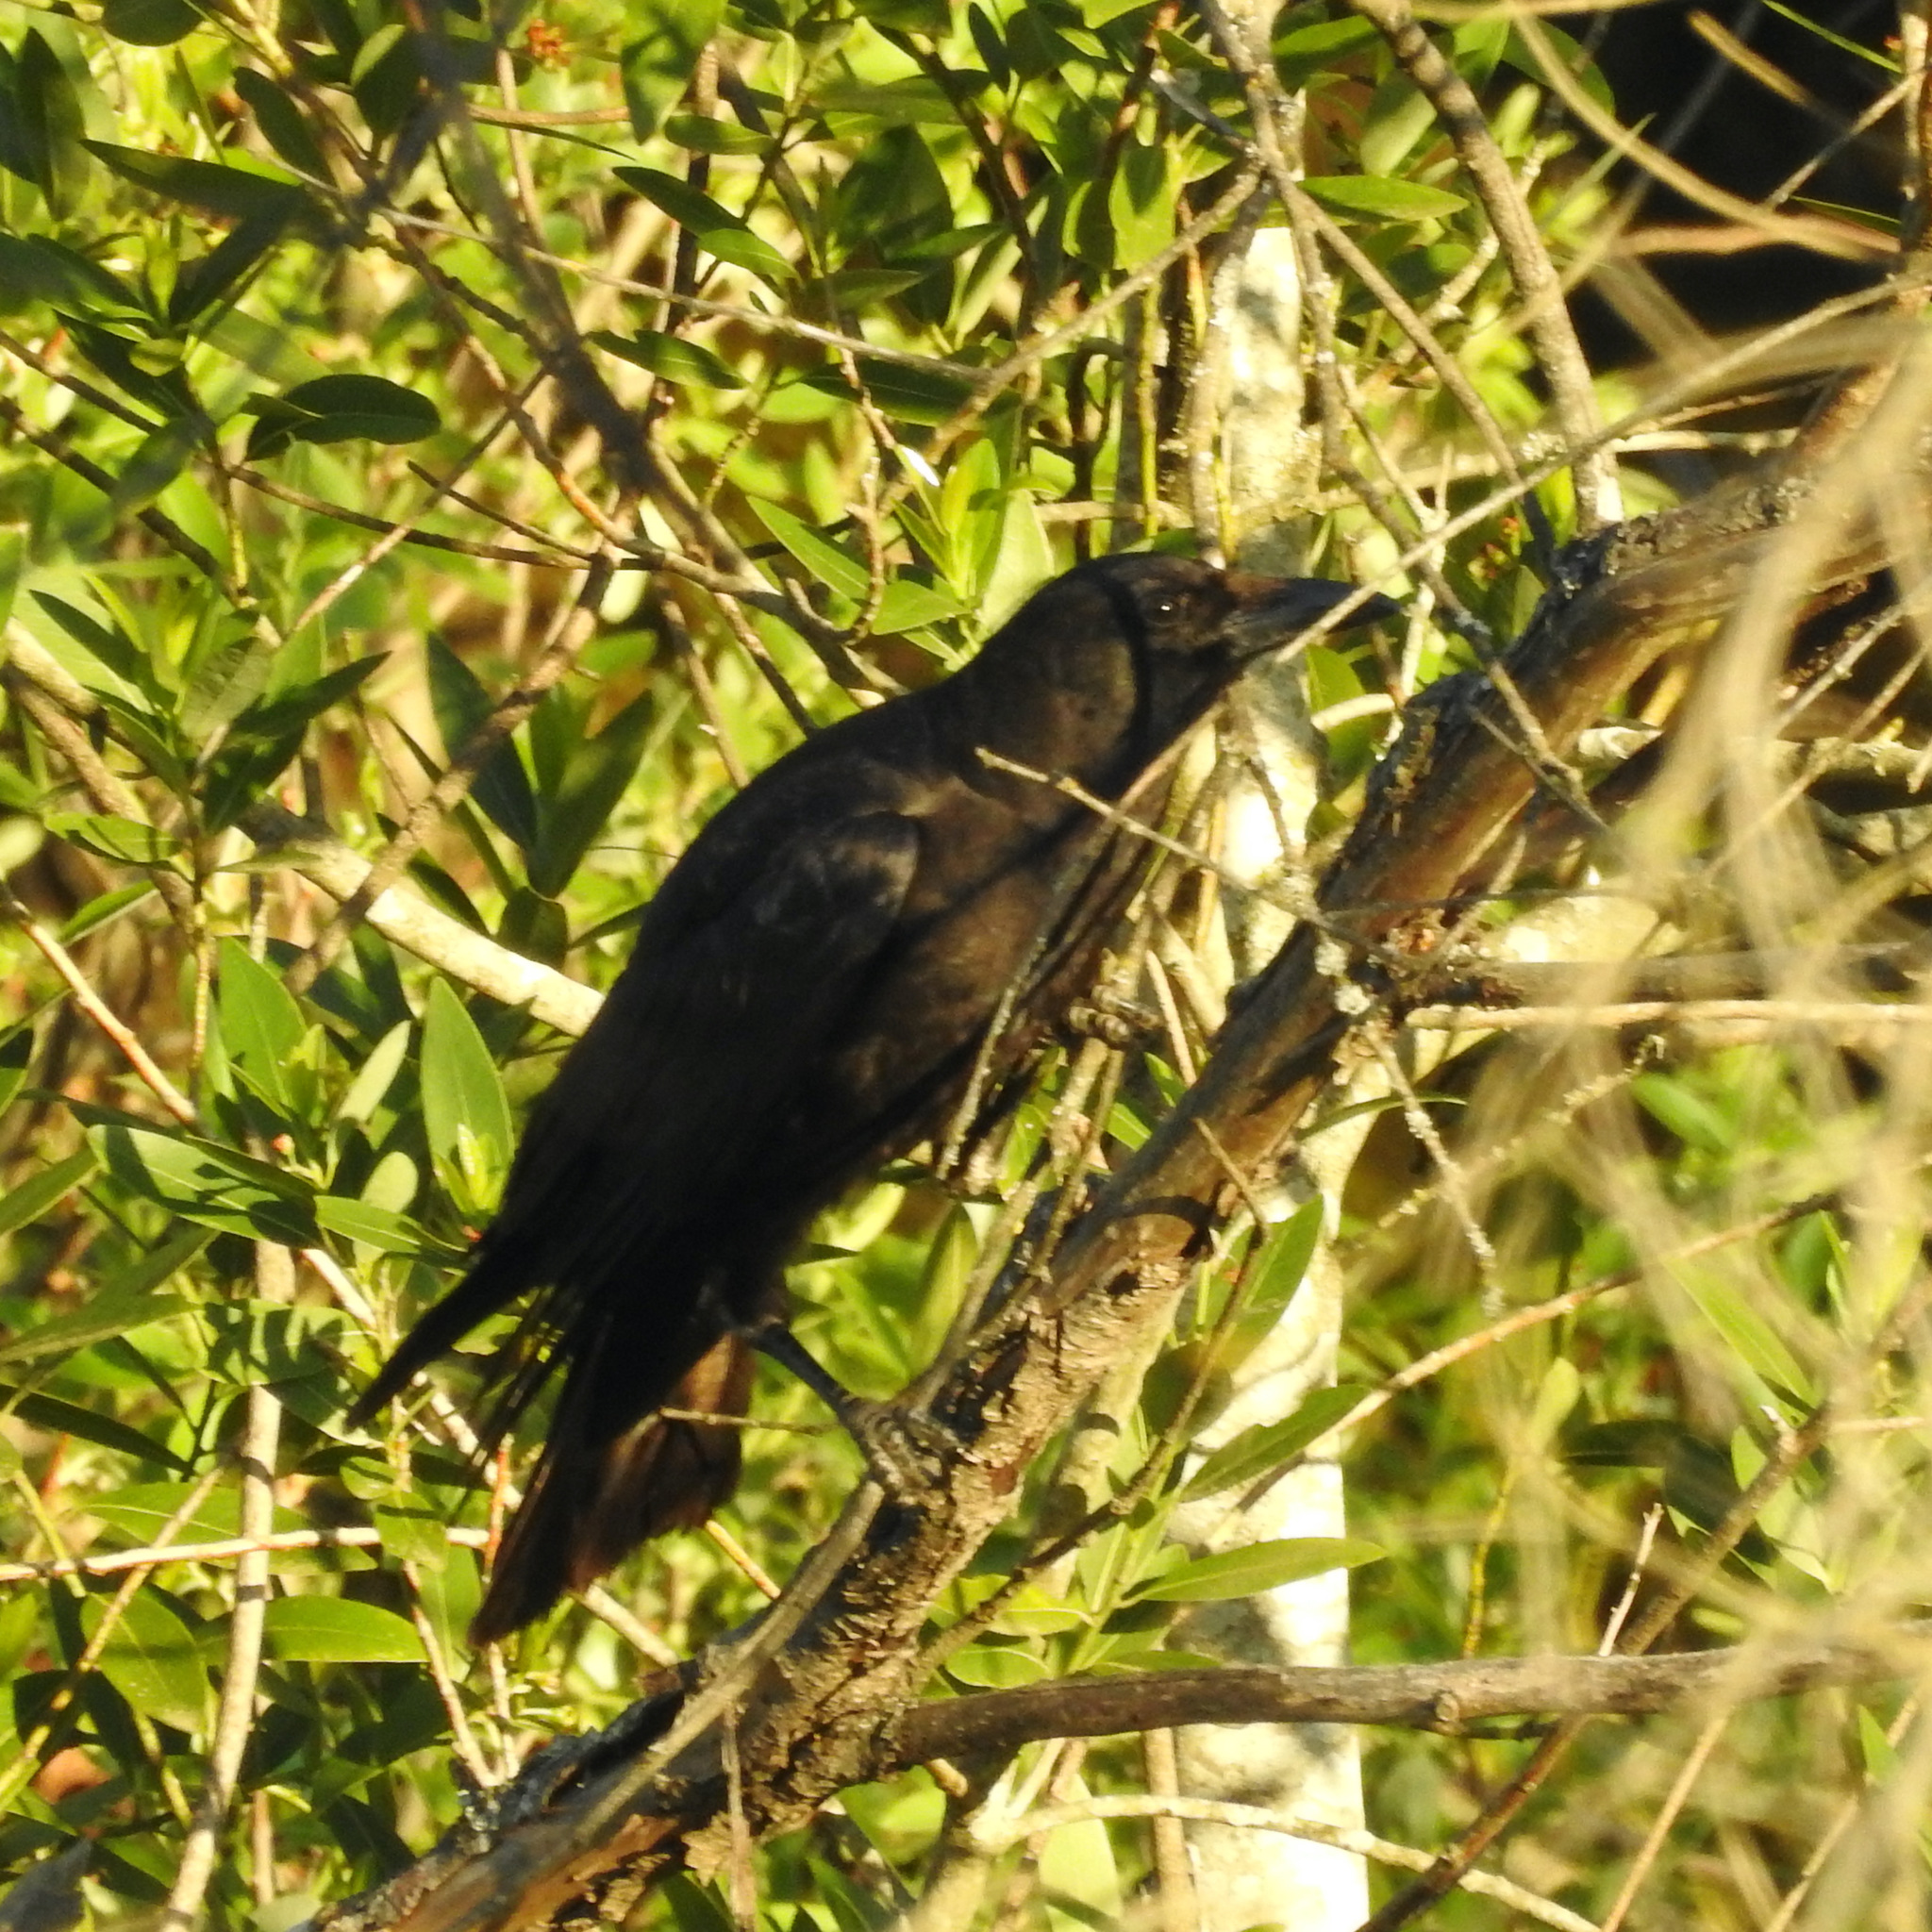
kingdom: Animalia
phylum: Chordata
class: Aves
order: Passeriformes
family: Corvidae
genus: Corvus
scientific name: Corvus brachyrhynchos
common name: American crow
